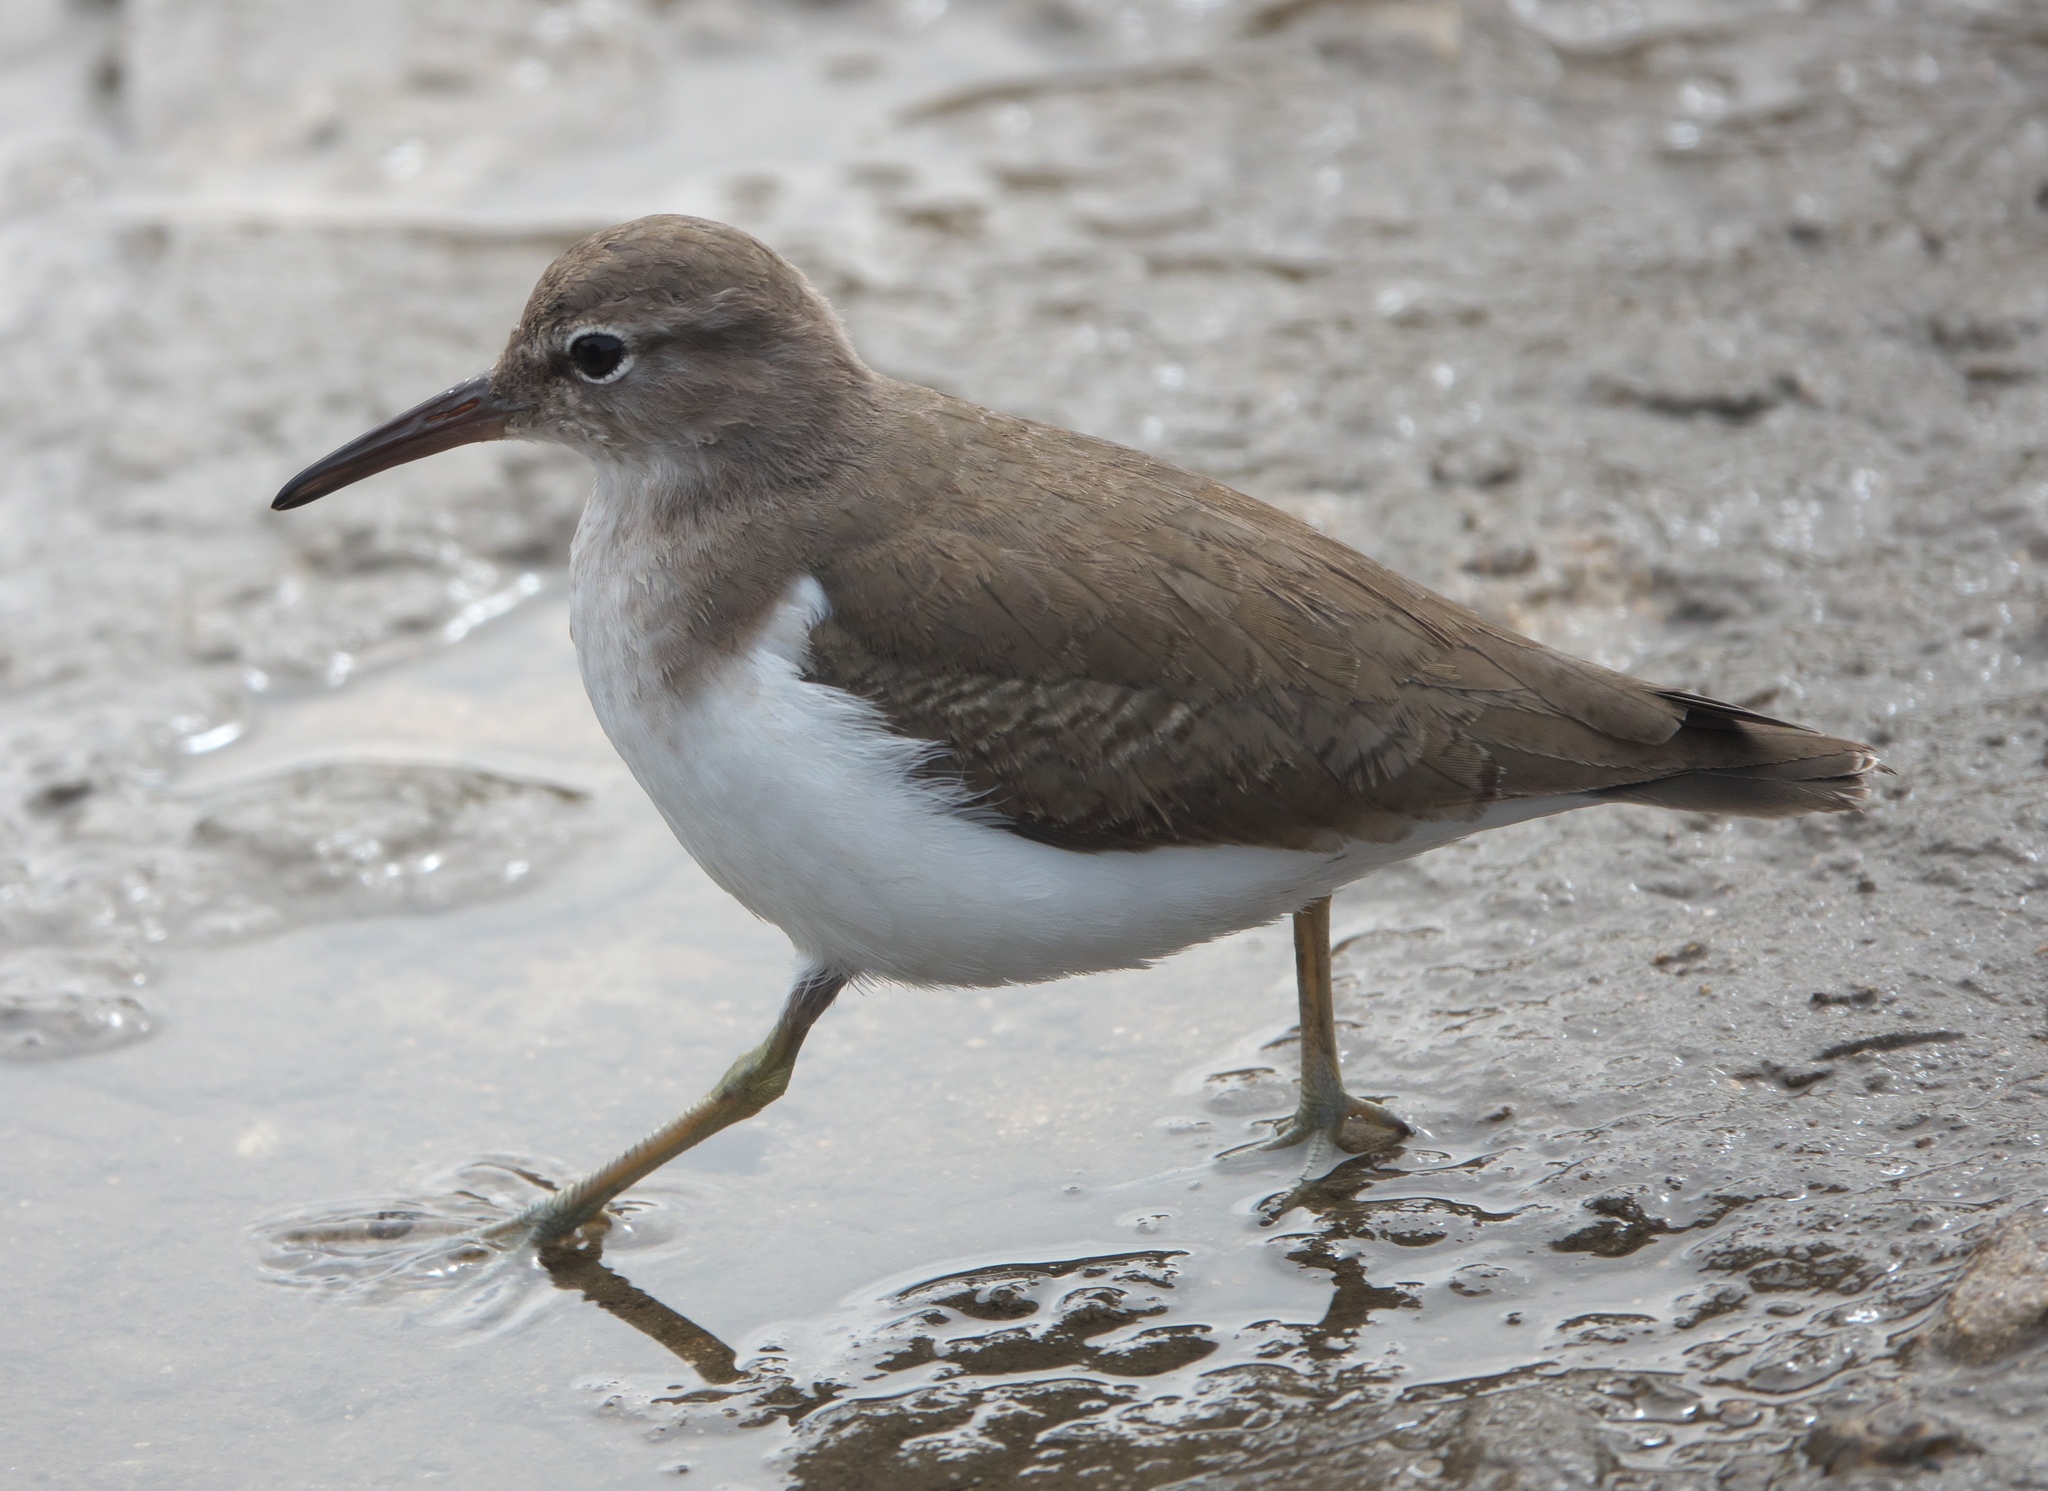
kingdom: Animalia
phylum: Chordata
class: Aves
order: Charadriiformes
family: Scolopacidae
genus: Actitis
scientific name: Actitis macularius
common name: Spotted sandpiper
